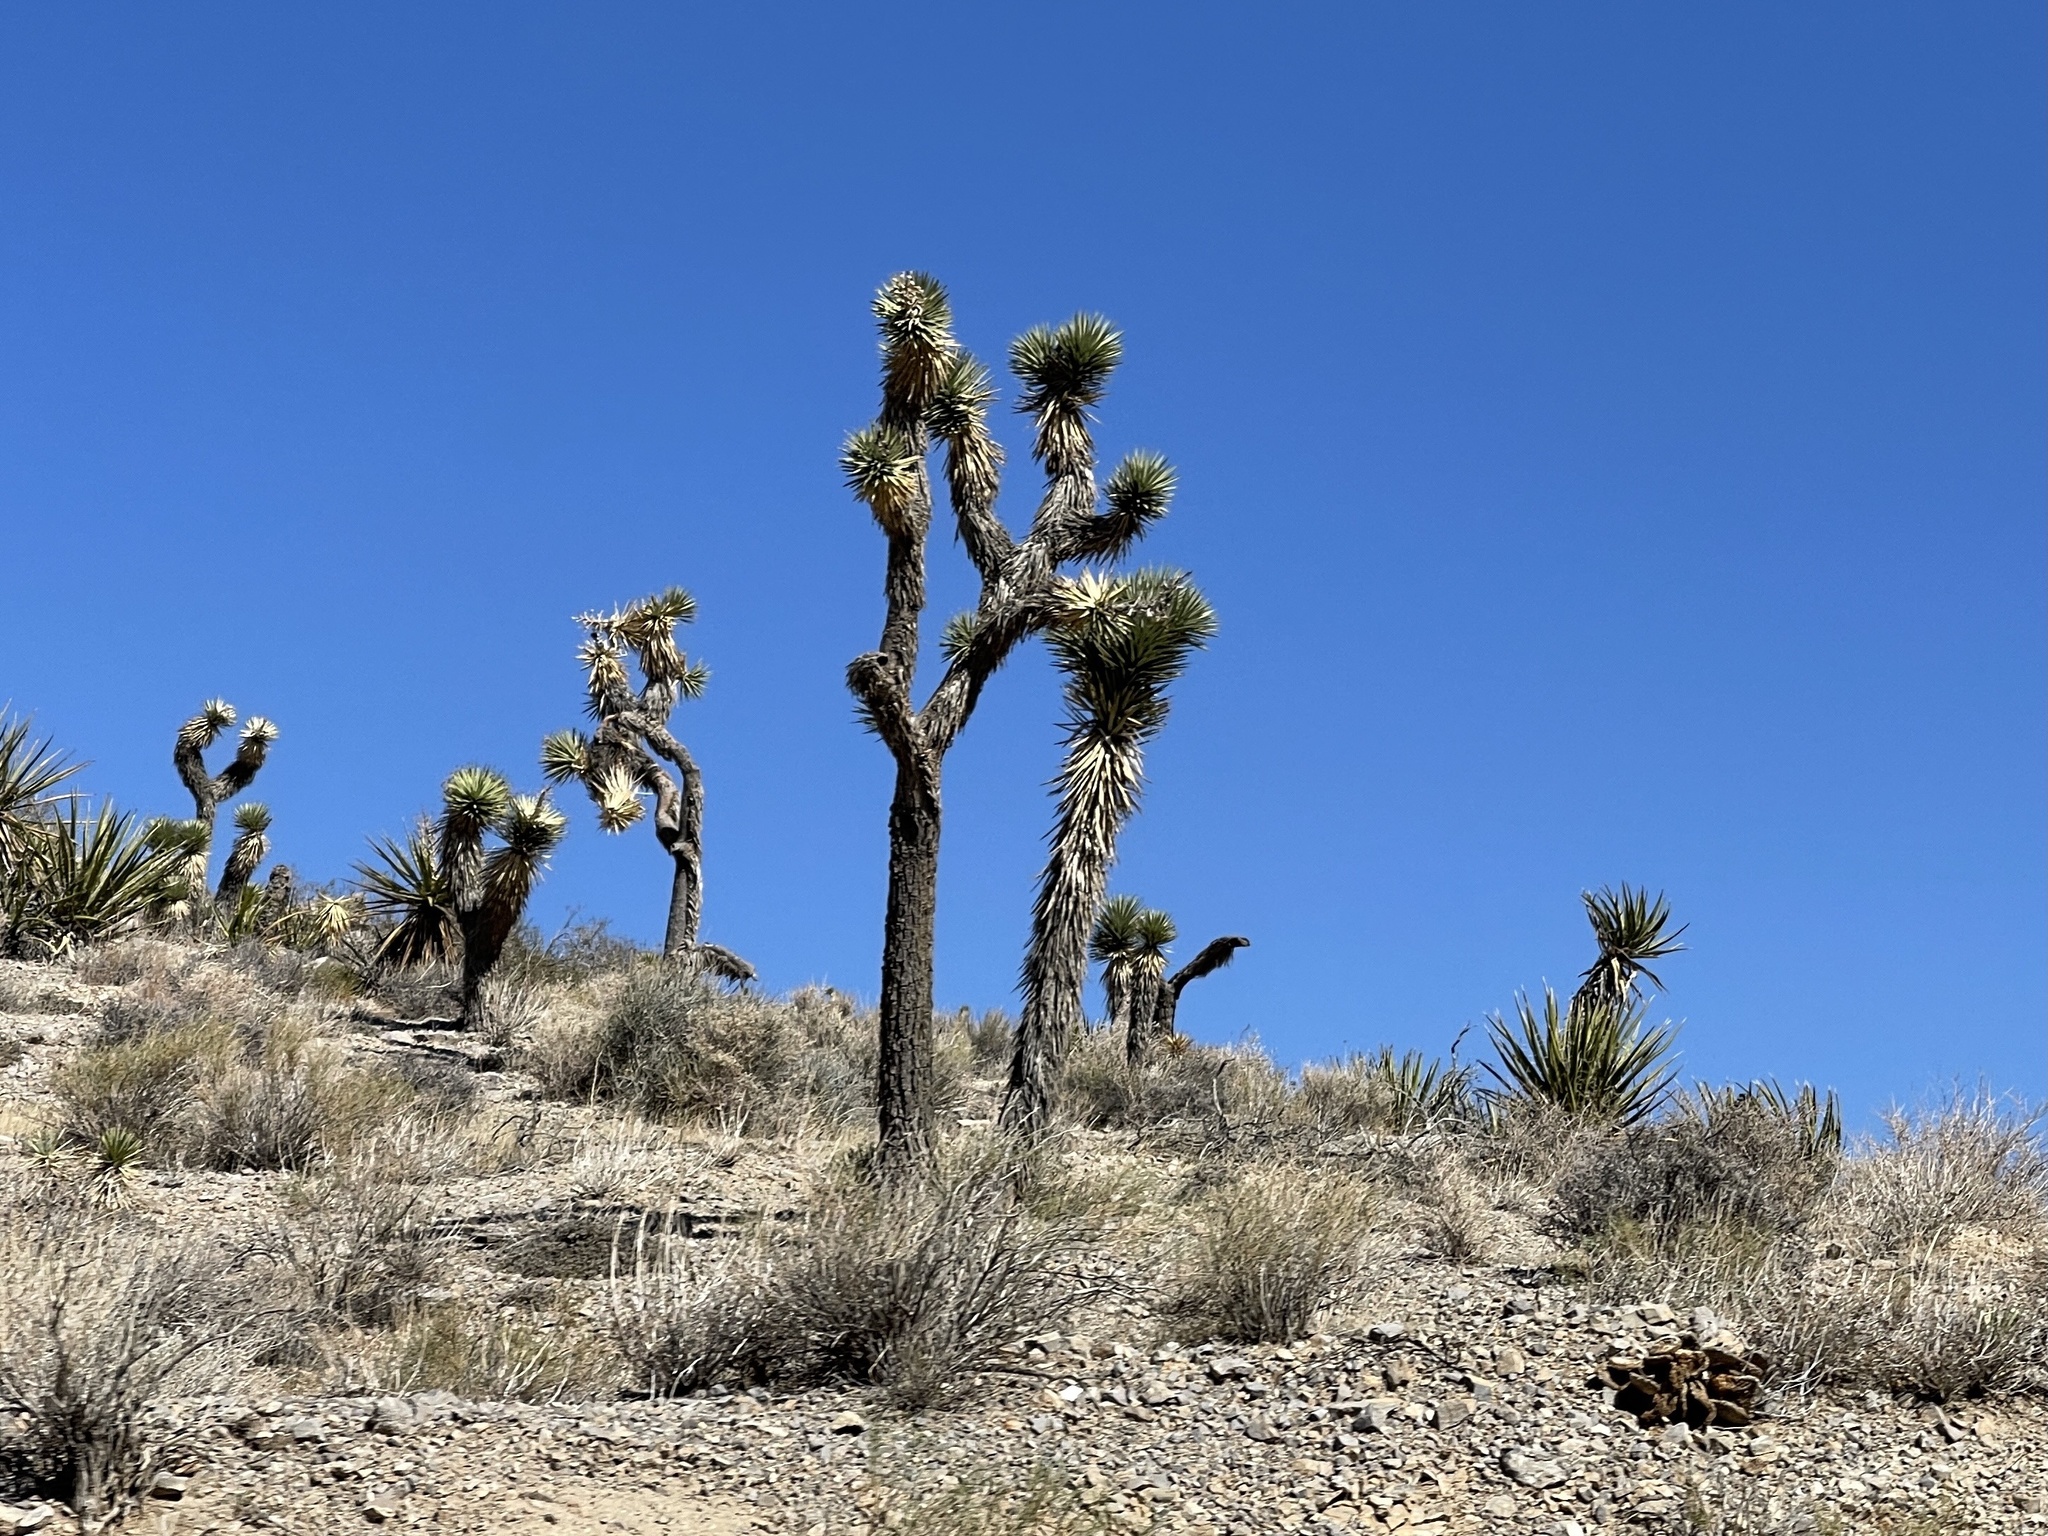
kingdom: Plantae
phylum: Tracheophyta
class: Liliopsida
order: Asparagales
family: Asparagaceae
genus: Yucca
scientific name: Yucca brevifolia
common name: Joshua tree
